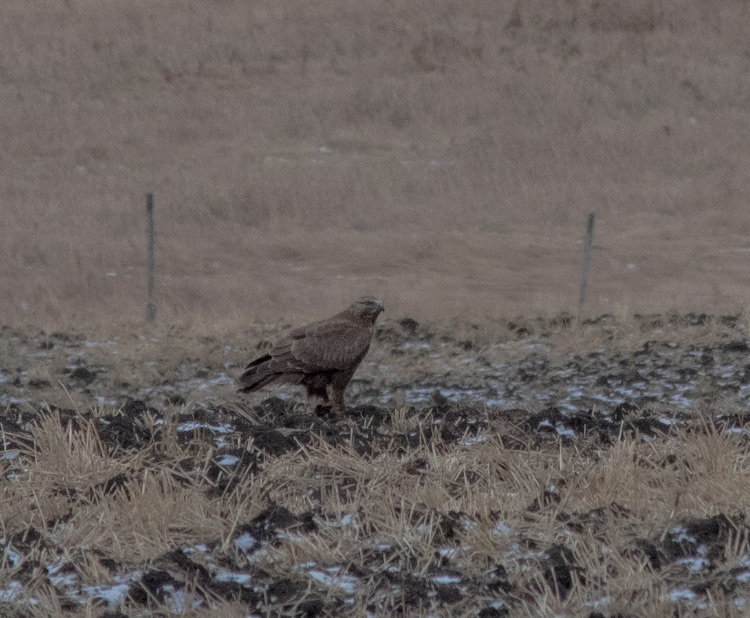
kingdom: Animalia
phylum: Chordata
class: Aves
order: Accipitriformes
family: Accipitridae
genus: Buteo
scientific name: Buteo lagopus
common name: Rough-legged buzzard
